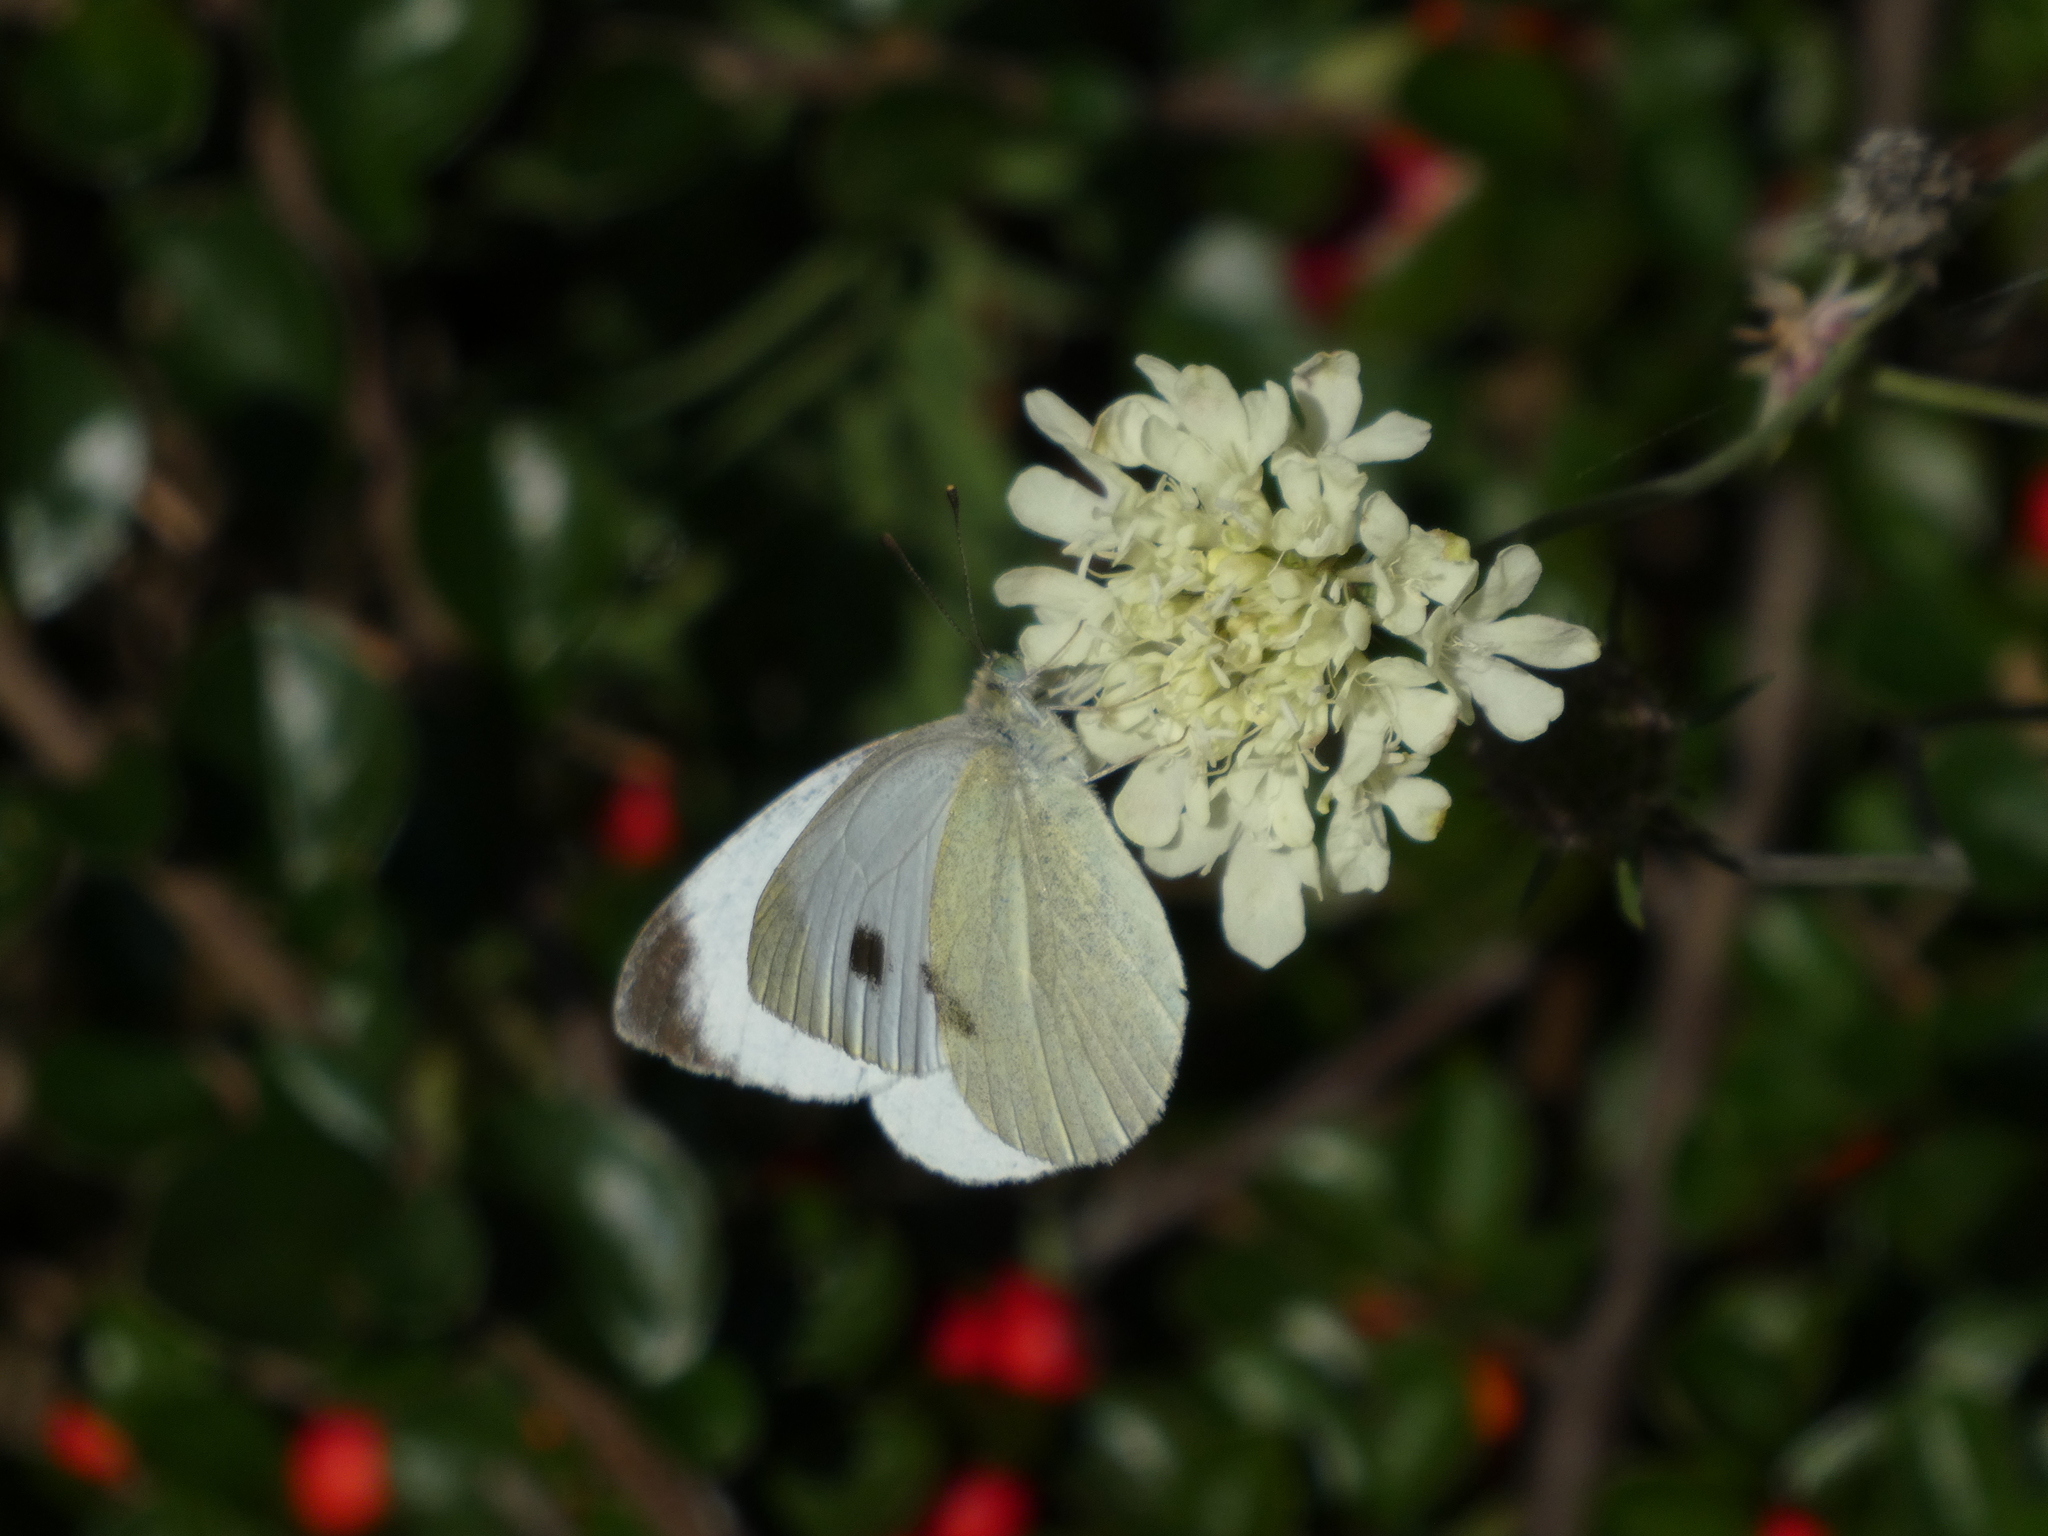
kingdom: Animalia
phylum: Arthropoda
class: Insecta
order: Lepidoptera
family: Pieridae
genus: Pieris
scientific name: Pieris brassicae
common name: Large white
